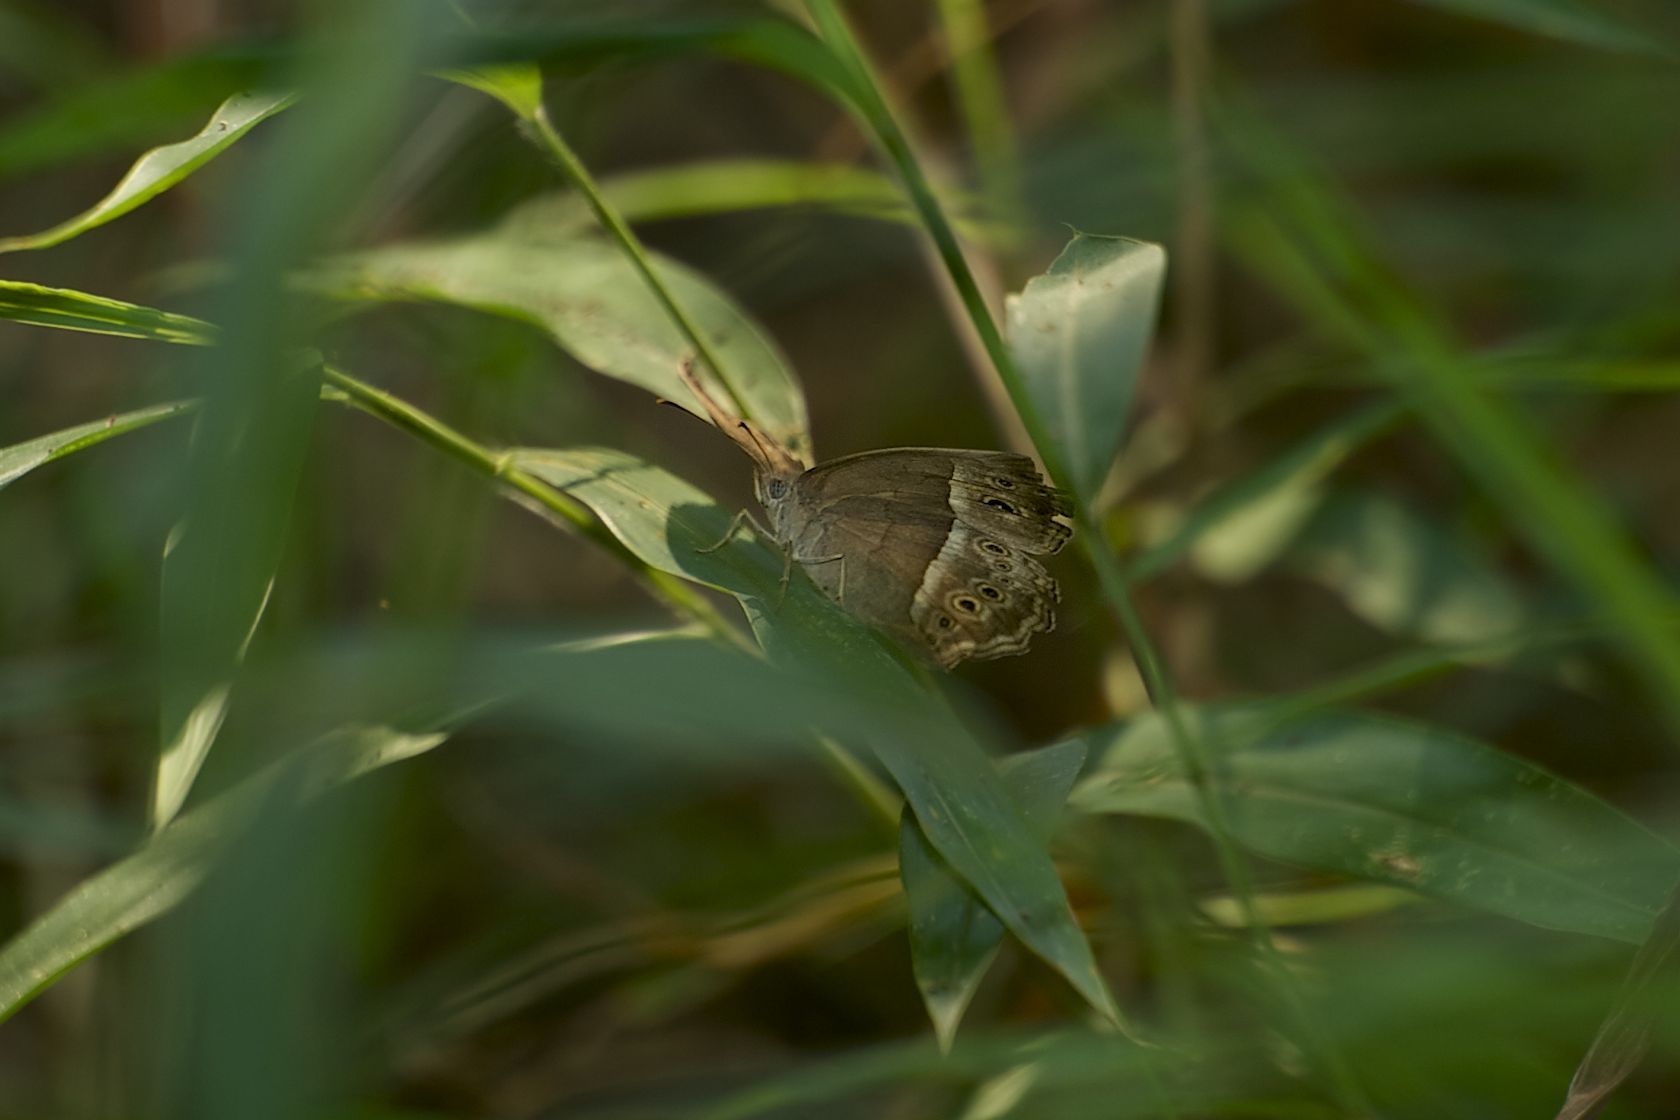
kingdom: Animalia
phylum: Arthropoda
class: Insecta
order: Lepidoptera
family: Nymphalidae
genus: Mycalesis
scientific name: Mycalesis mineus
